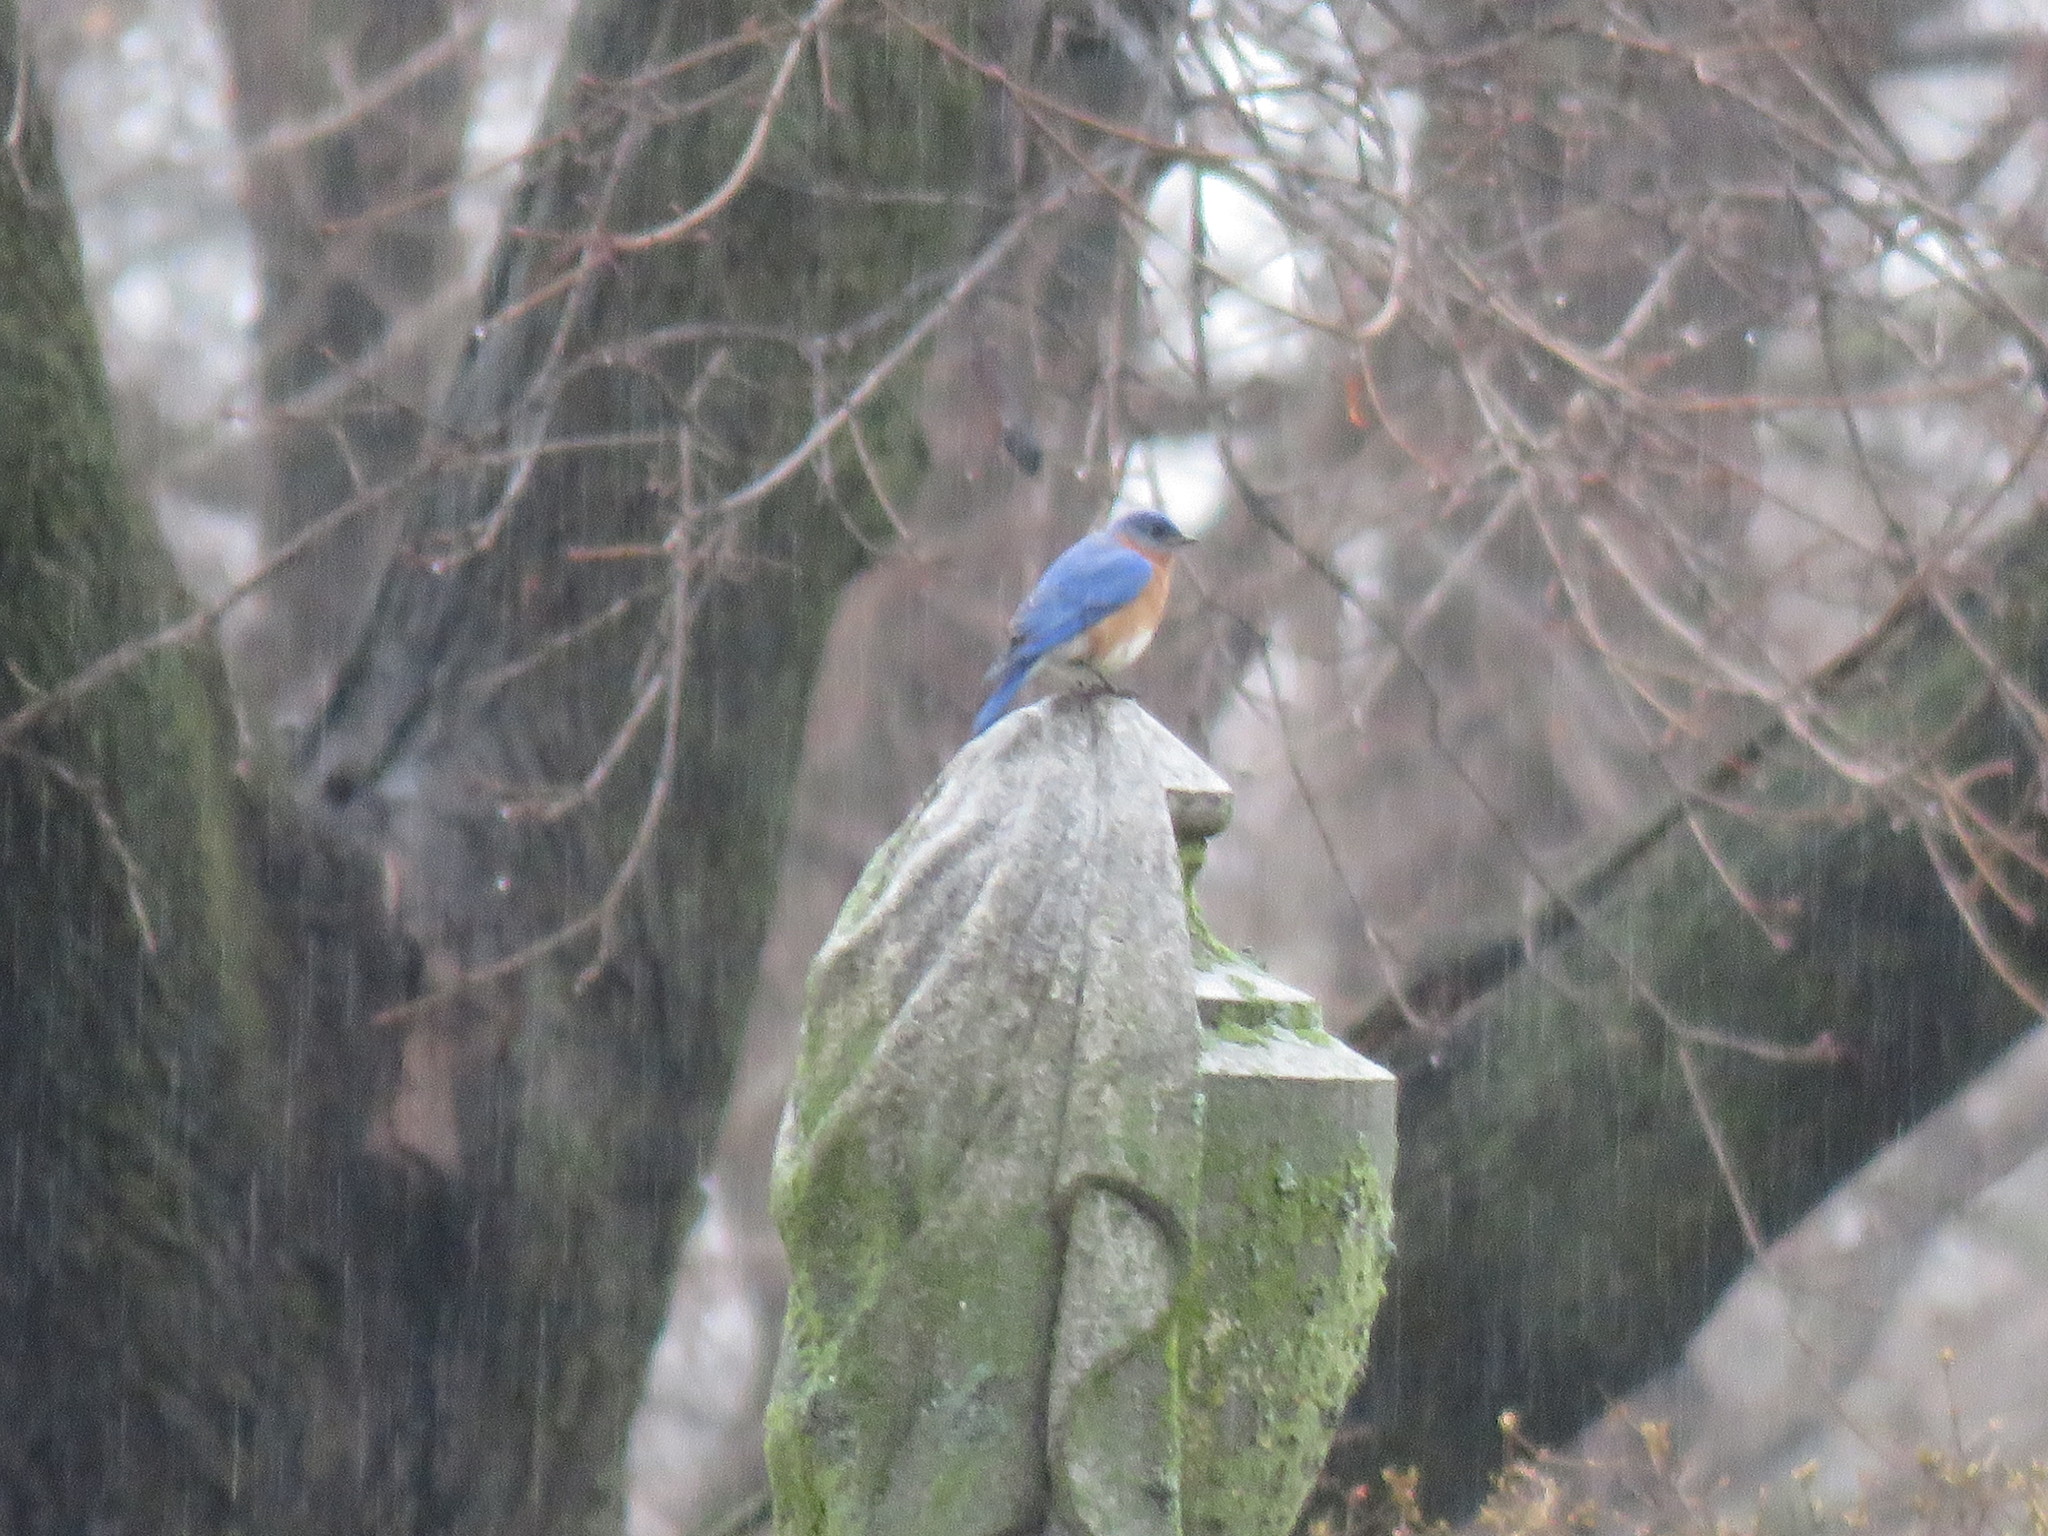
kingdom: Animalia
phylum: Chordata
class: Aves
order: Passeriformes
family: Turdidae
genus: Sialia
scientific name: Sialia sialis
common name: Eastern bluebird
